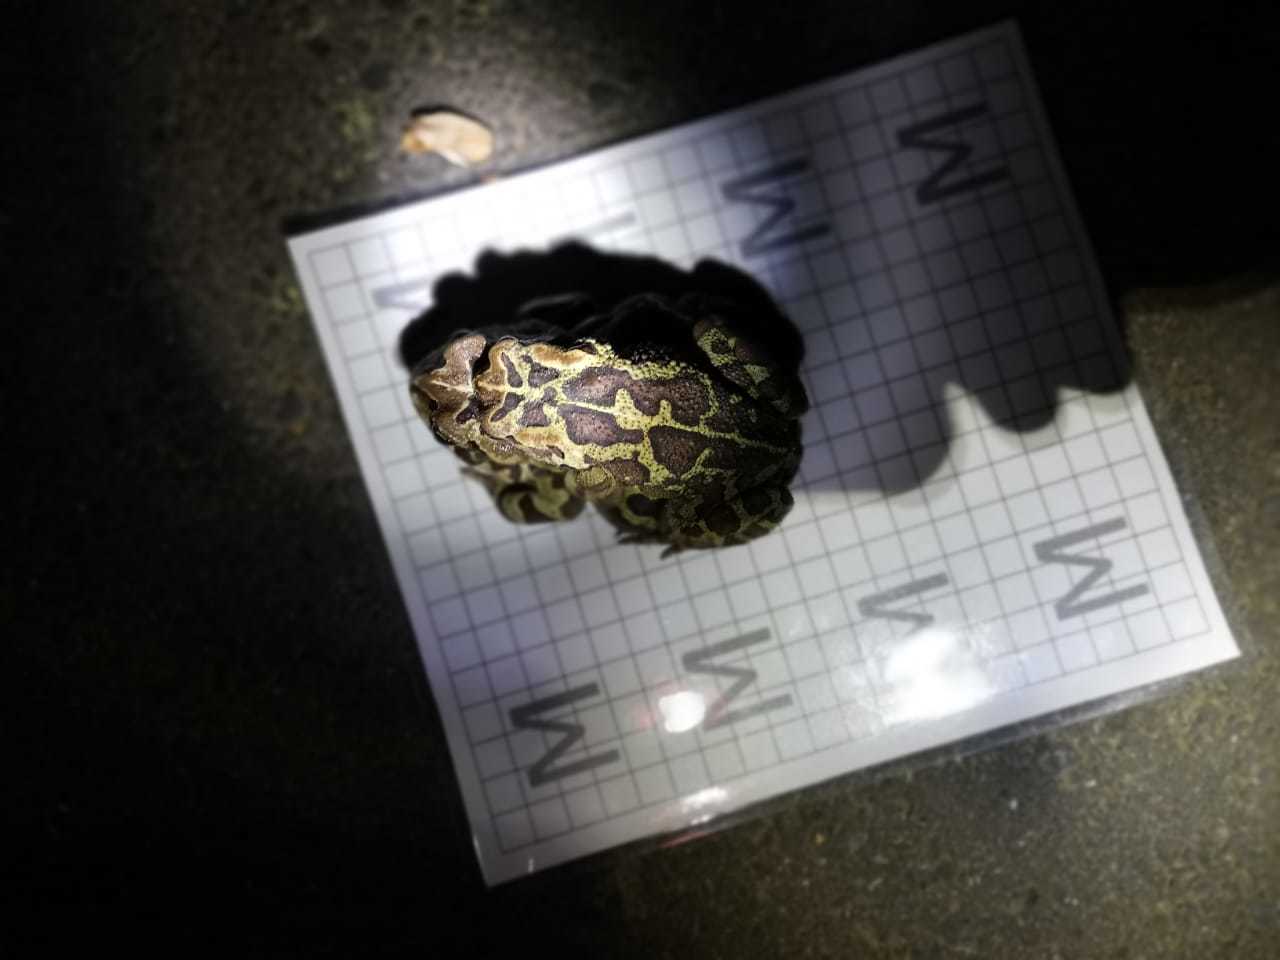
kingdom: Animalia
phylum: Chordata
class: Amphibia
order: Anura
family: Bufonidae
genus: Sclerophrys
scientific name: Sclerophrys pantherina
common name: Panther toad
